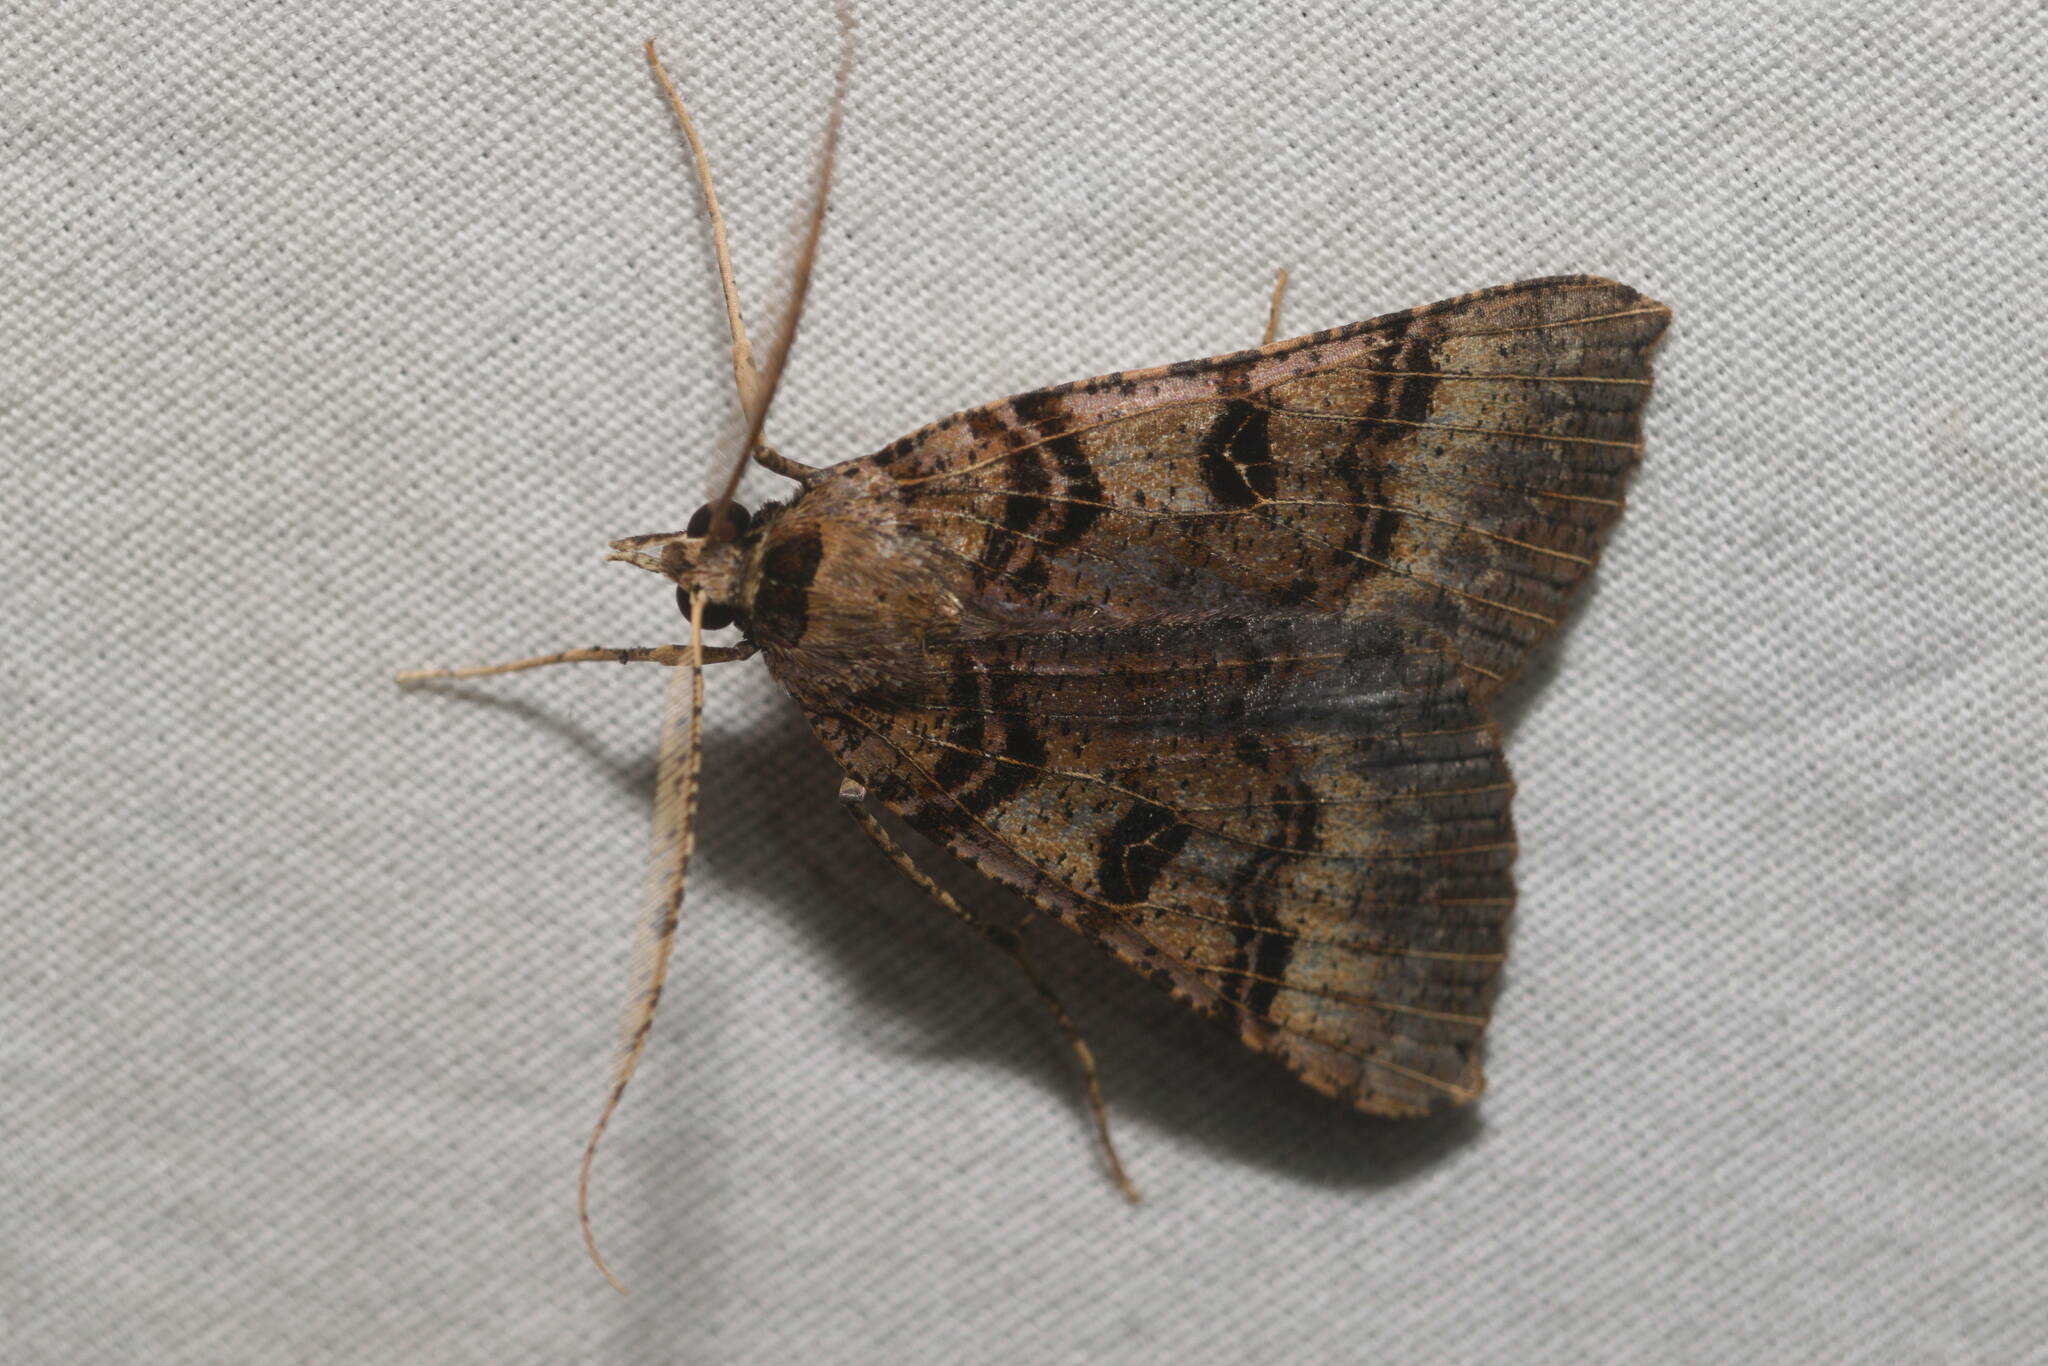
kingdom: Animalia
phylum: Arthropoda
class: Insecta
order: Lepidoptera
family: Geometridae
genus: Scotorythra
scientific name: Scotorythra dissotis
